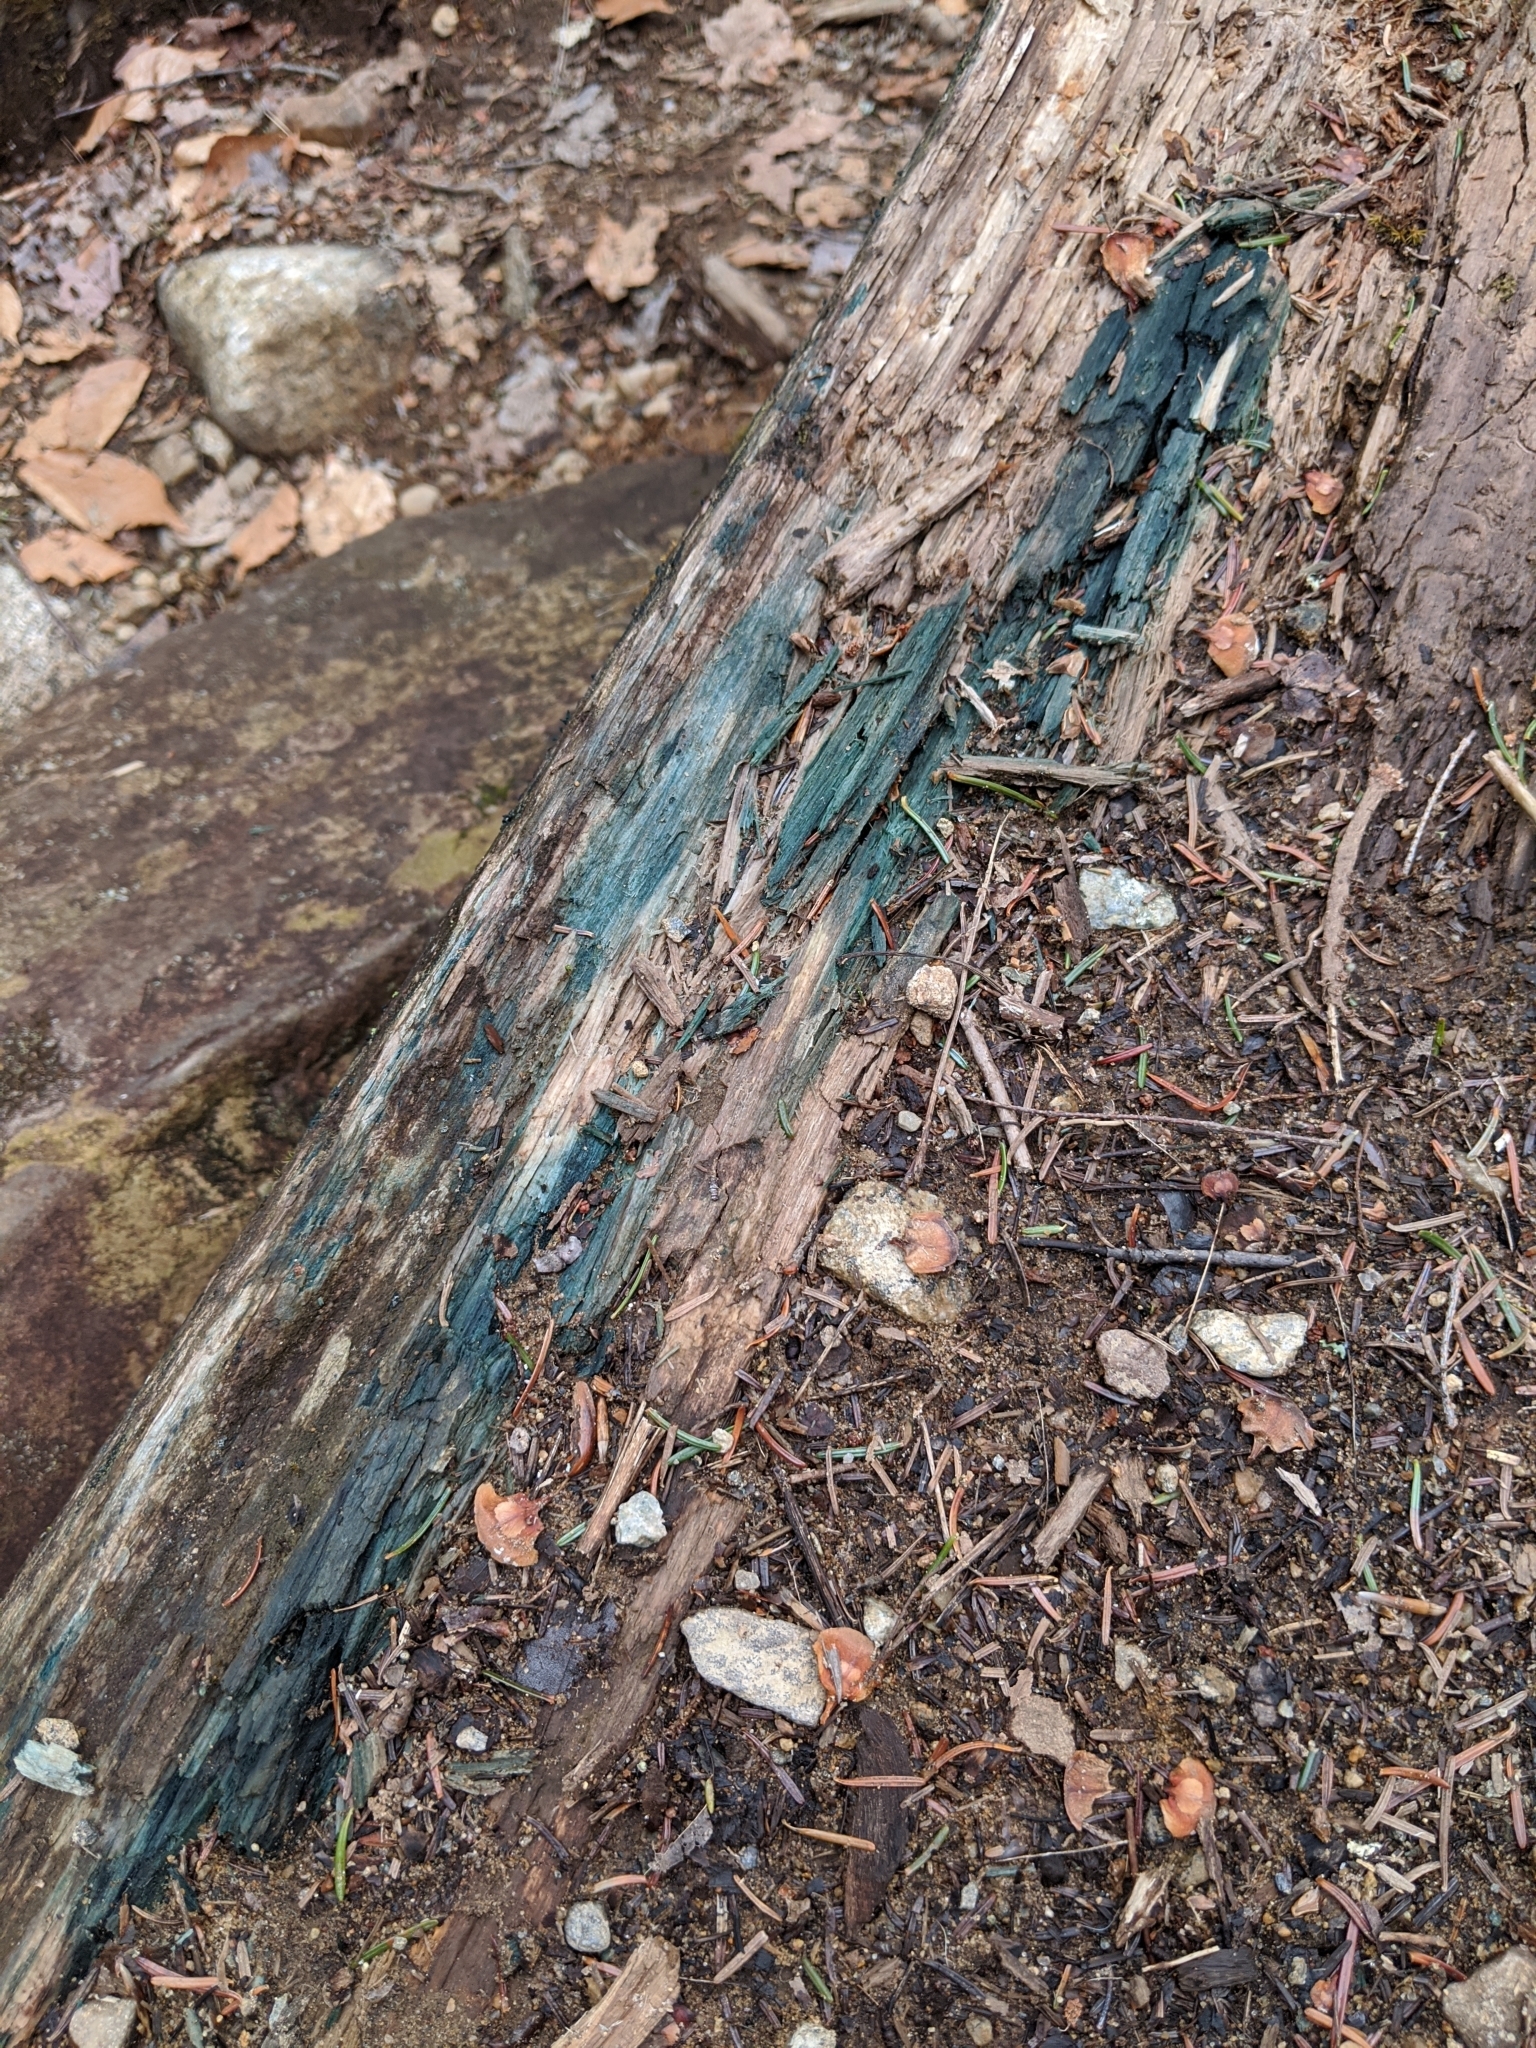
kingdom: Fungi
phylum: Ascomycota
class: Leotiomycetes
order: Helotiales
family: Chlorociboriaceae
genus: Chlorociboria
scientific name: Chlorociboria
